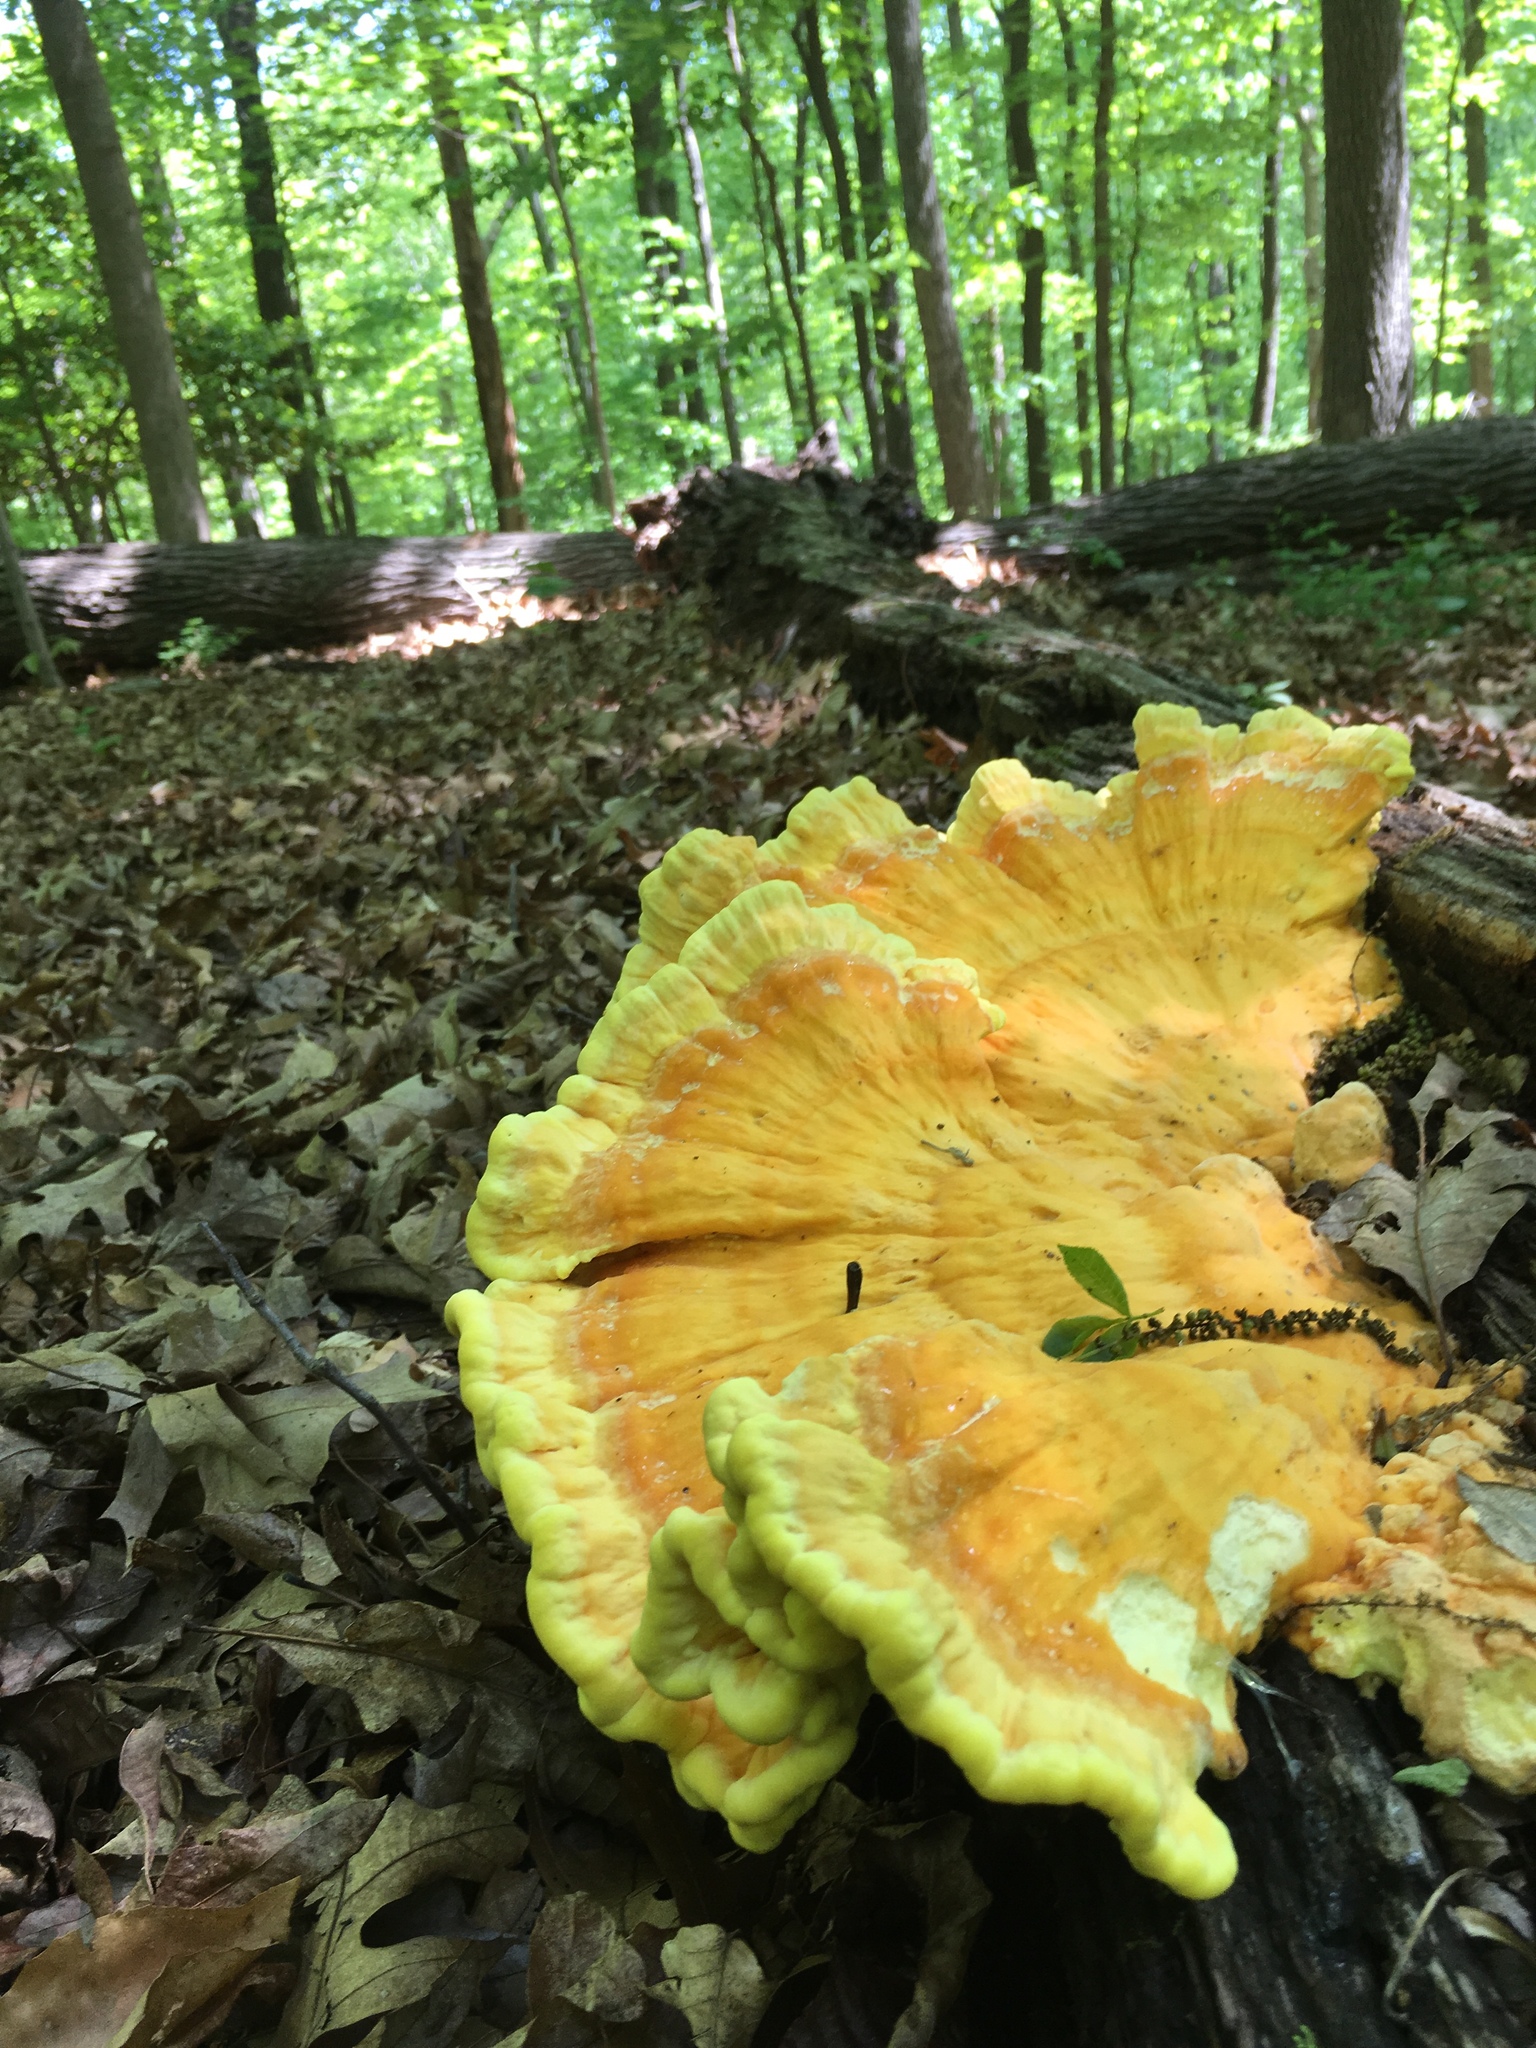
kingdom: Fungi
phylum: Basidiomycota
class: Agaricomycetes
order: Polyporales
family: Laetiporaceae
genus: Laetiporus
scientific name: Laetiporus sulphureus
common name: Chicken of the woods
